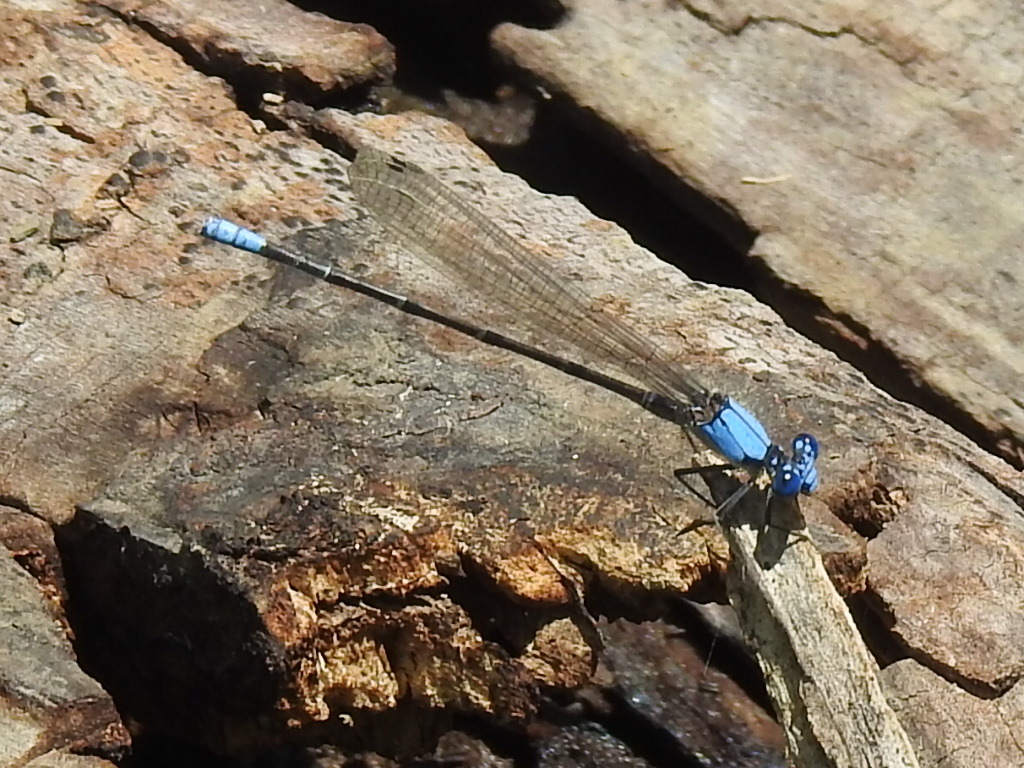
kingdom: Animalia
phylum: Arthropoda
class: Insecta
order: Odonata
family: Coenagrionidae
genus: Argia
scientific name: Argia apicalis
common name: Blue-fronted dancer
